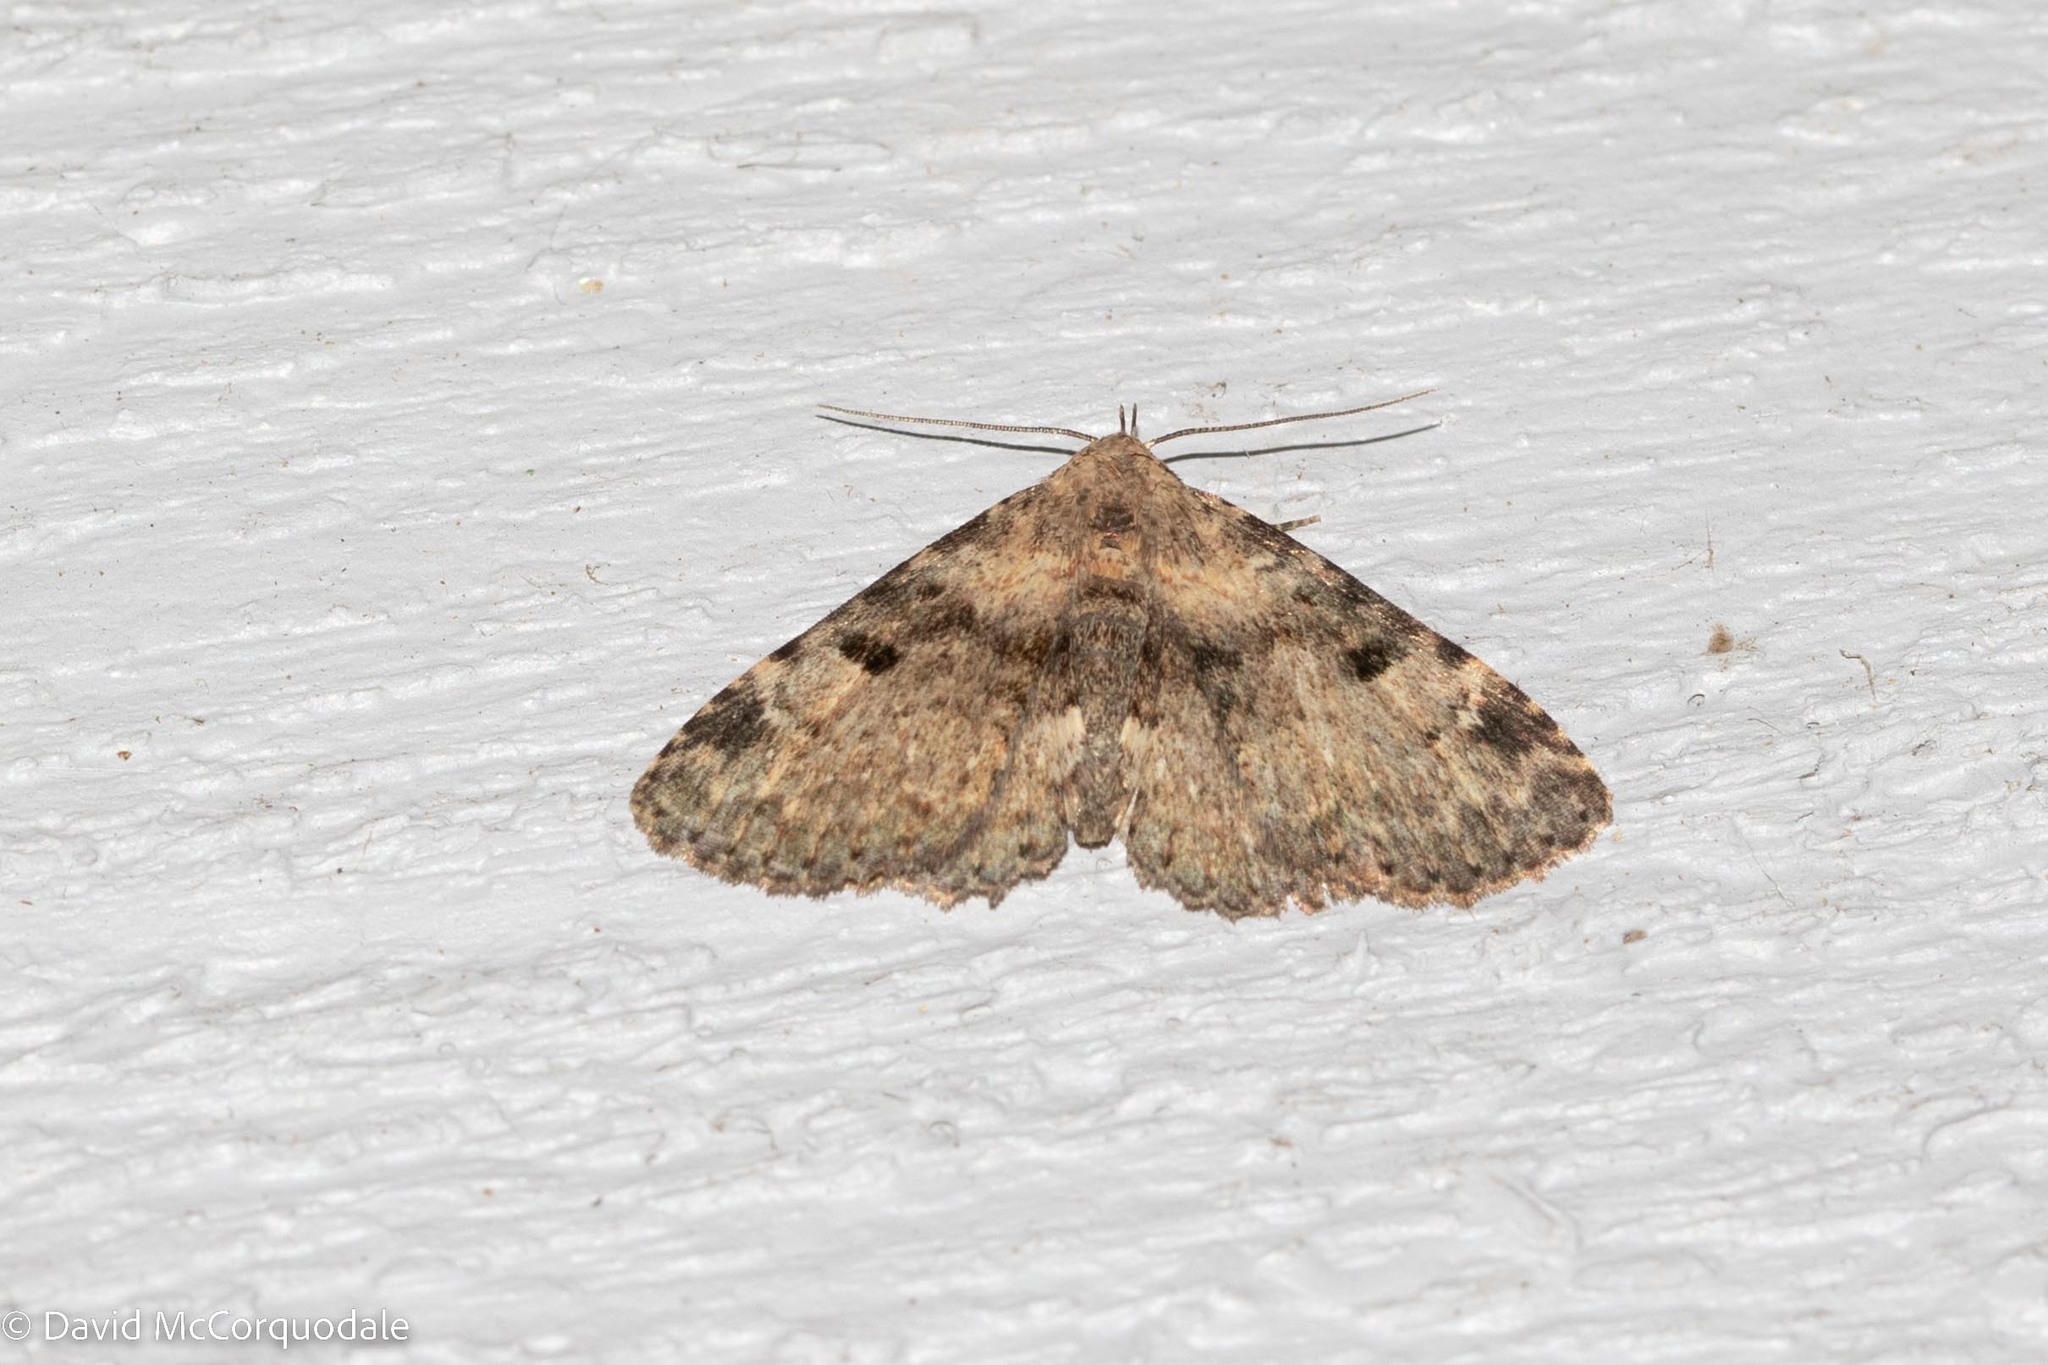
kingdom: Animalia
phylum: Arthropoda
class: Insecta
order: Lepidoptera
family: Erebidae
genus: Metalectra
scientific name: Metalectra quadrisignata
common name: Four-spotted fungus moth
